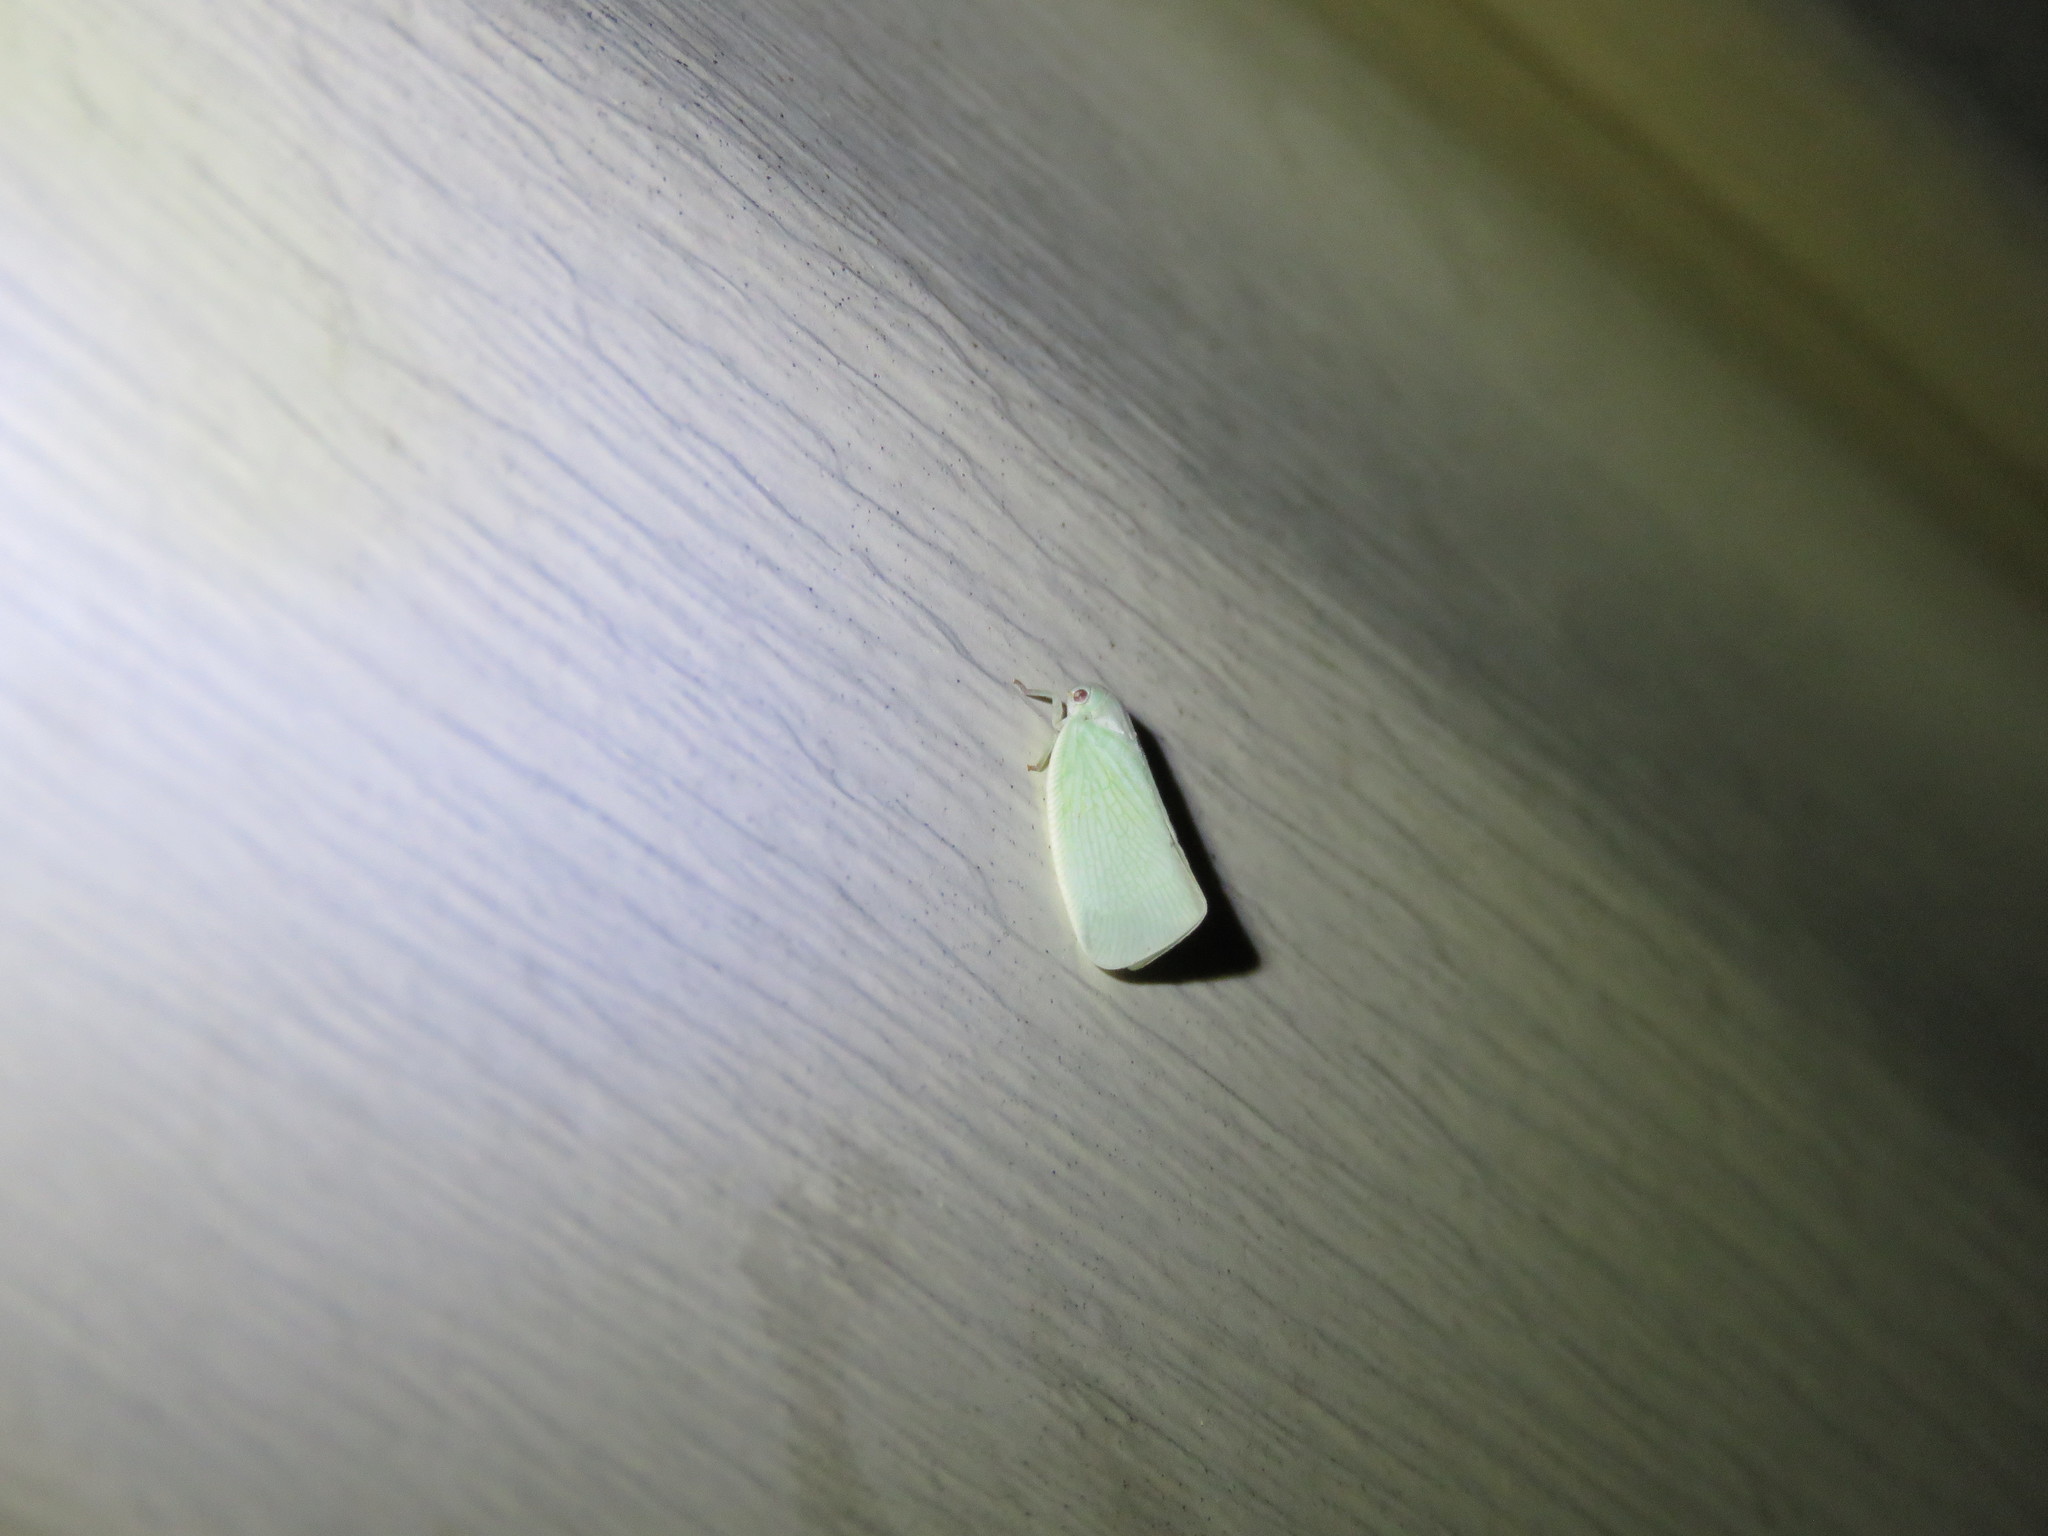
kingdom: Animalia
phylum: Arthropoda
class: Insecta
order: Hemiptera
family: Flatidae
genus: Flatormenis
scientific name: Flatormenis proxima
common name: Northern flatid planthopper
